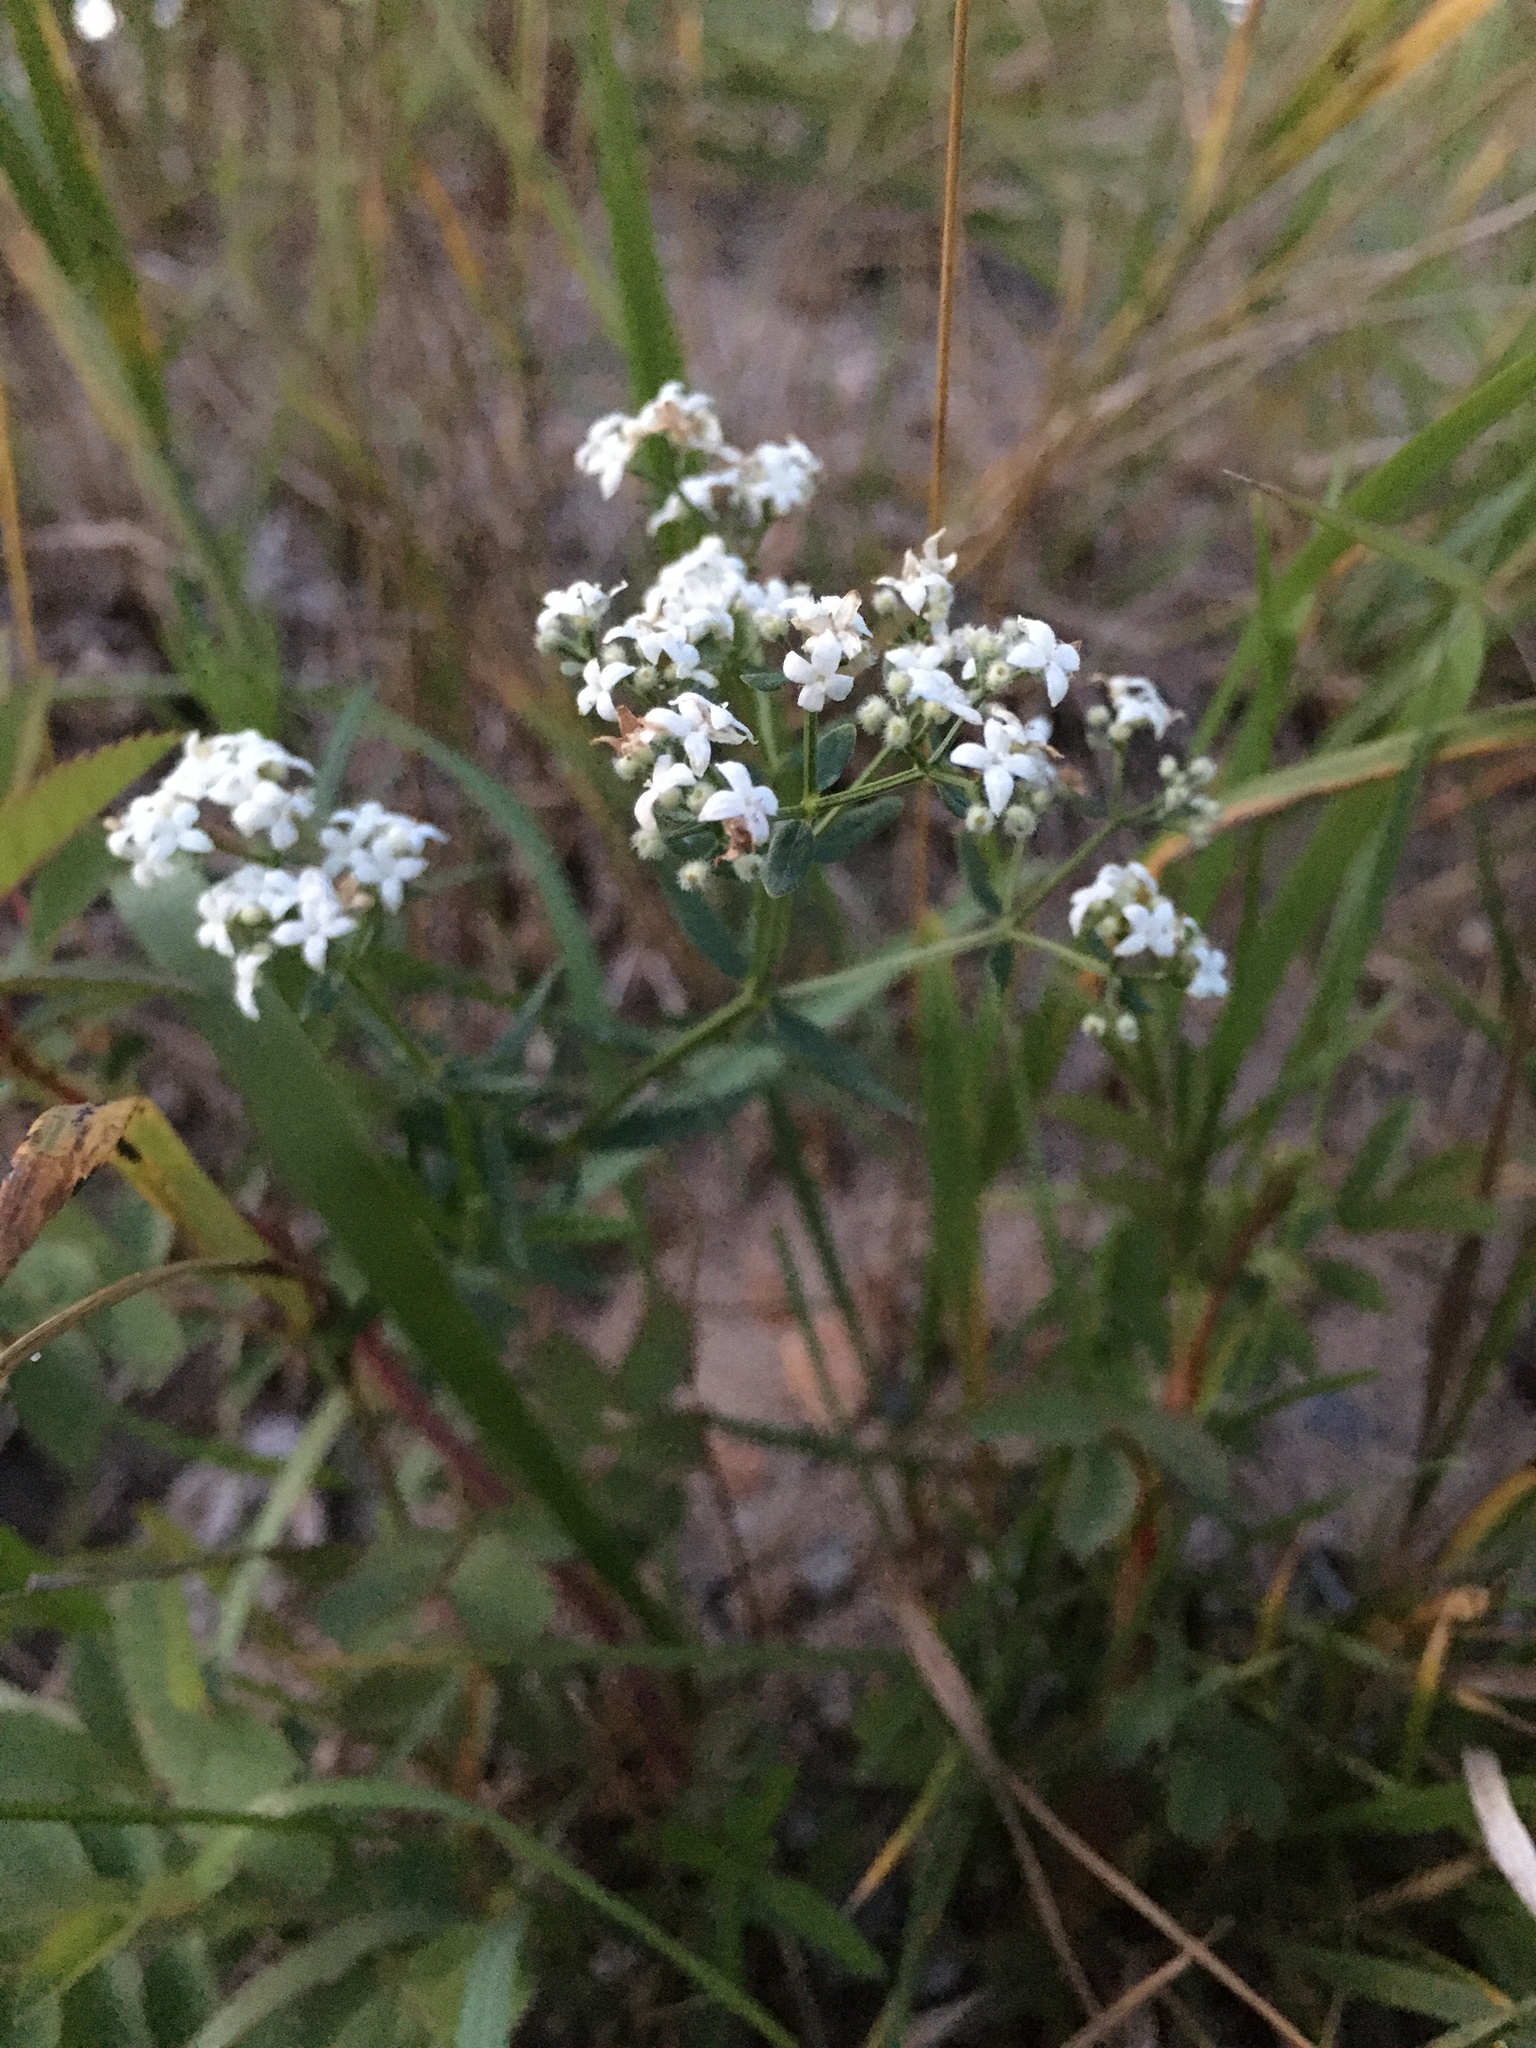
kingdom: Plantae
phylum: Tracheophyta
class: Magnoliopsida
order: Gentianales
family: Rubiaceae
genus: Galium
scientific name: Galium boreale
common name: Northern bedstraw
